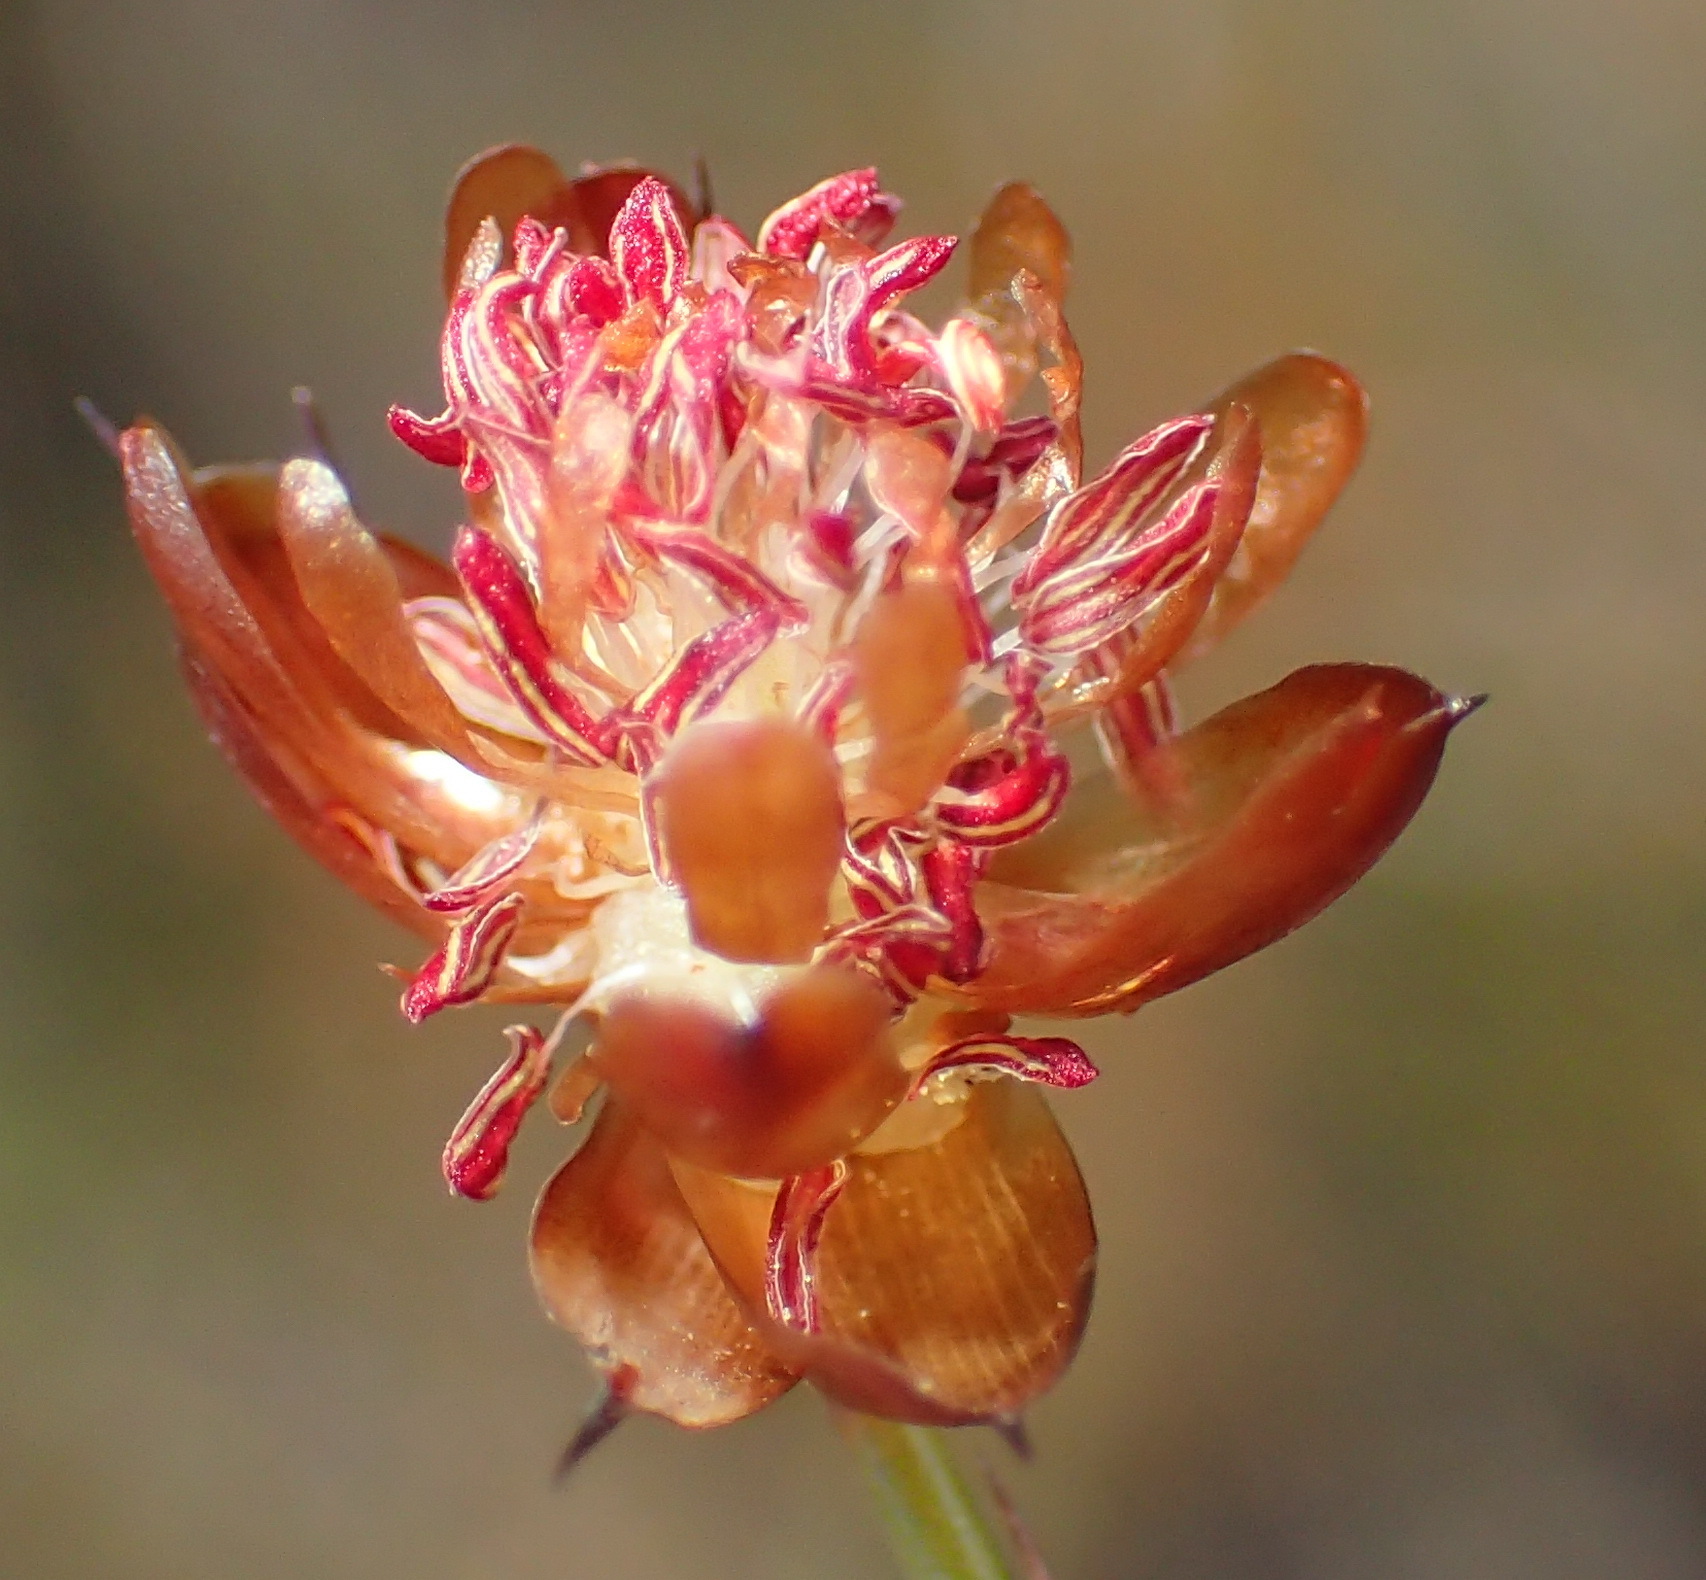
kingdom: Plantae
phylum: Tracheophyta
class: Liliopsida
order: Poales
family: Restionaceae
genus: Mastersiella
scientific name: Mastersiella purpurea
